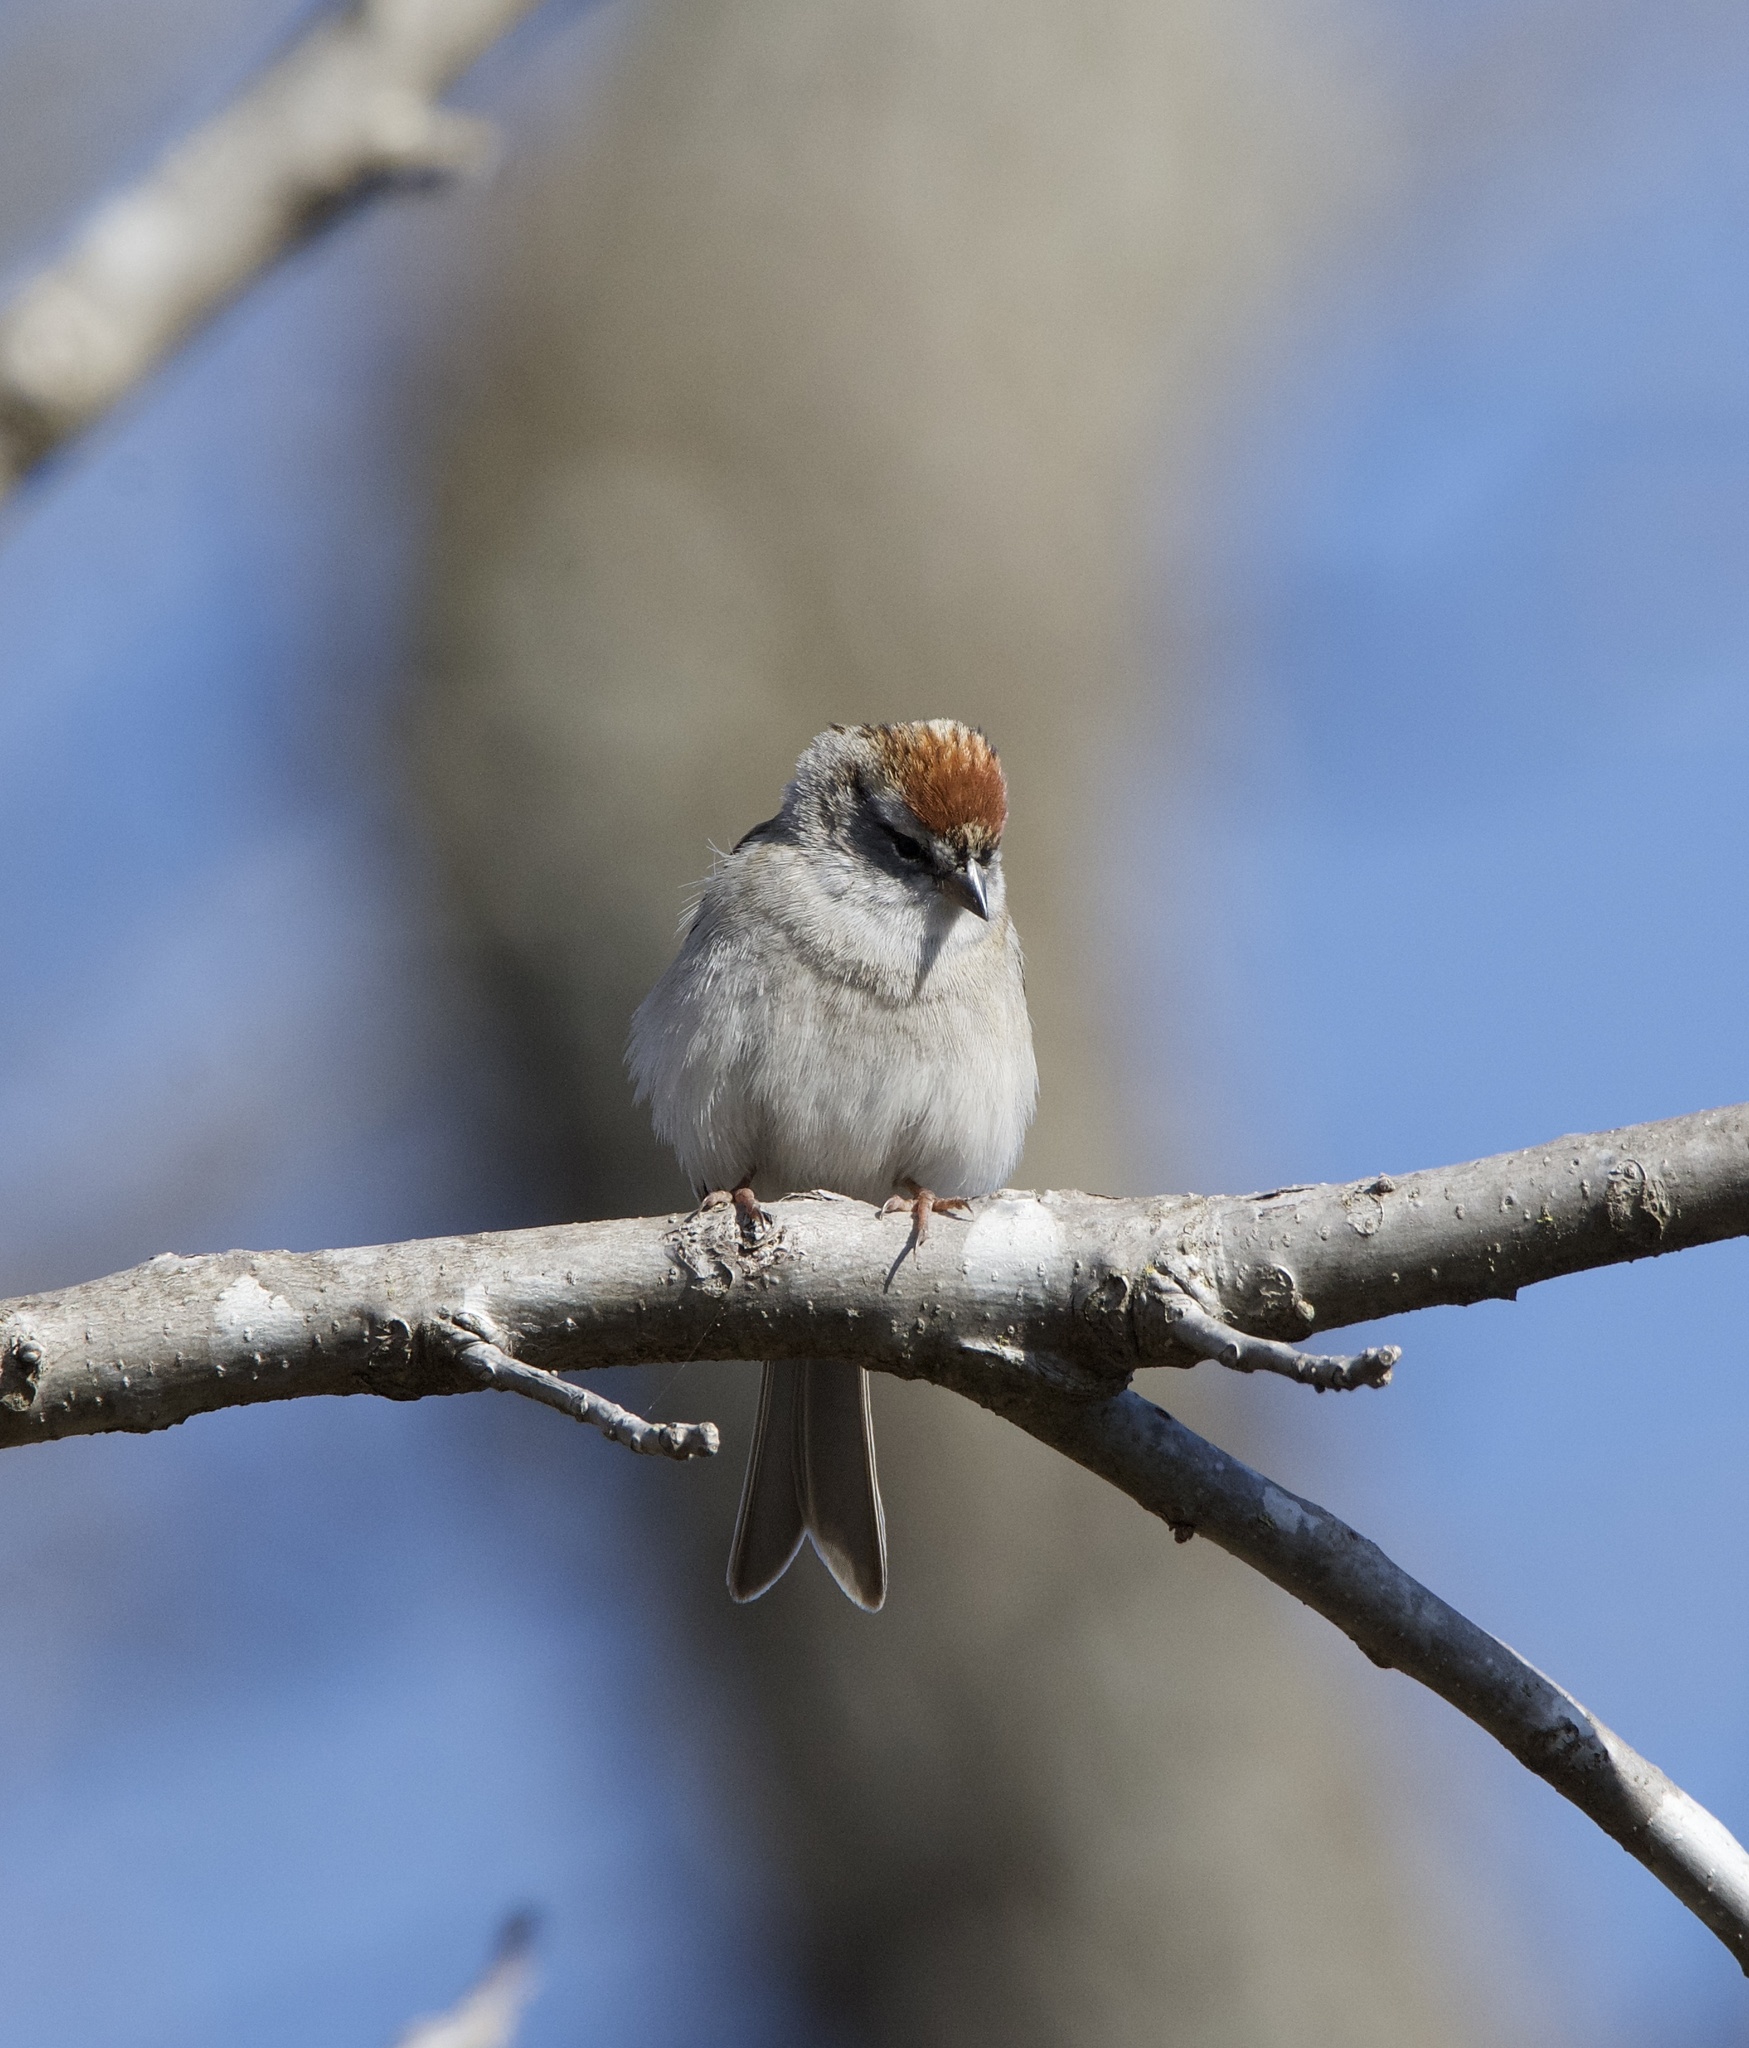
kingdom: Animalia
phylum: Chordata
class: Aves
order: Passeriformes
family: Passerellidae
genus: Spizella
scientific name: Spizella passerina
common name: Chipping sparrow
